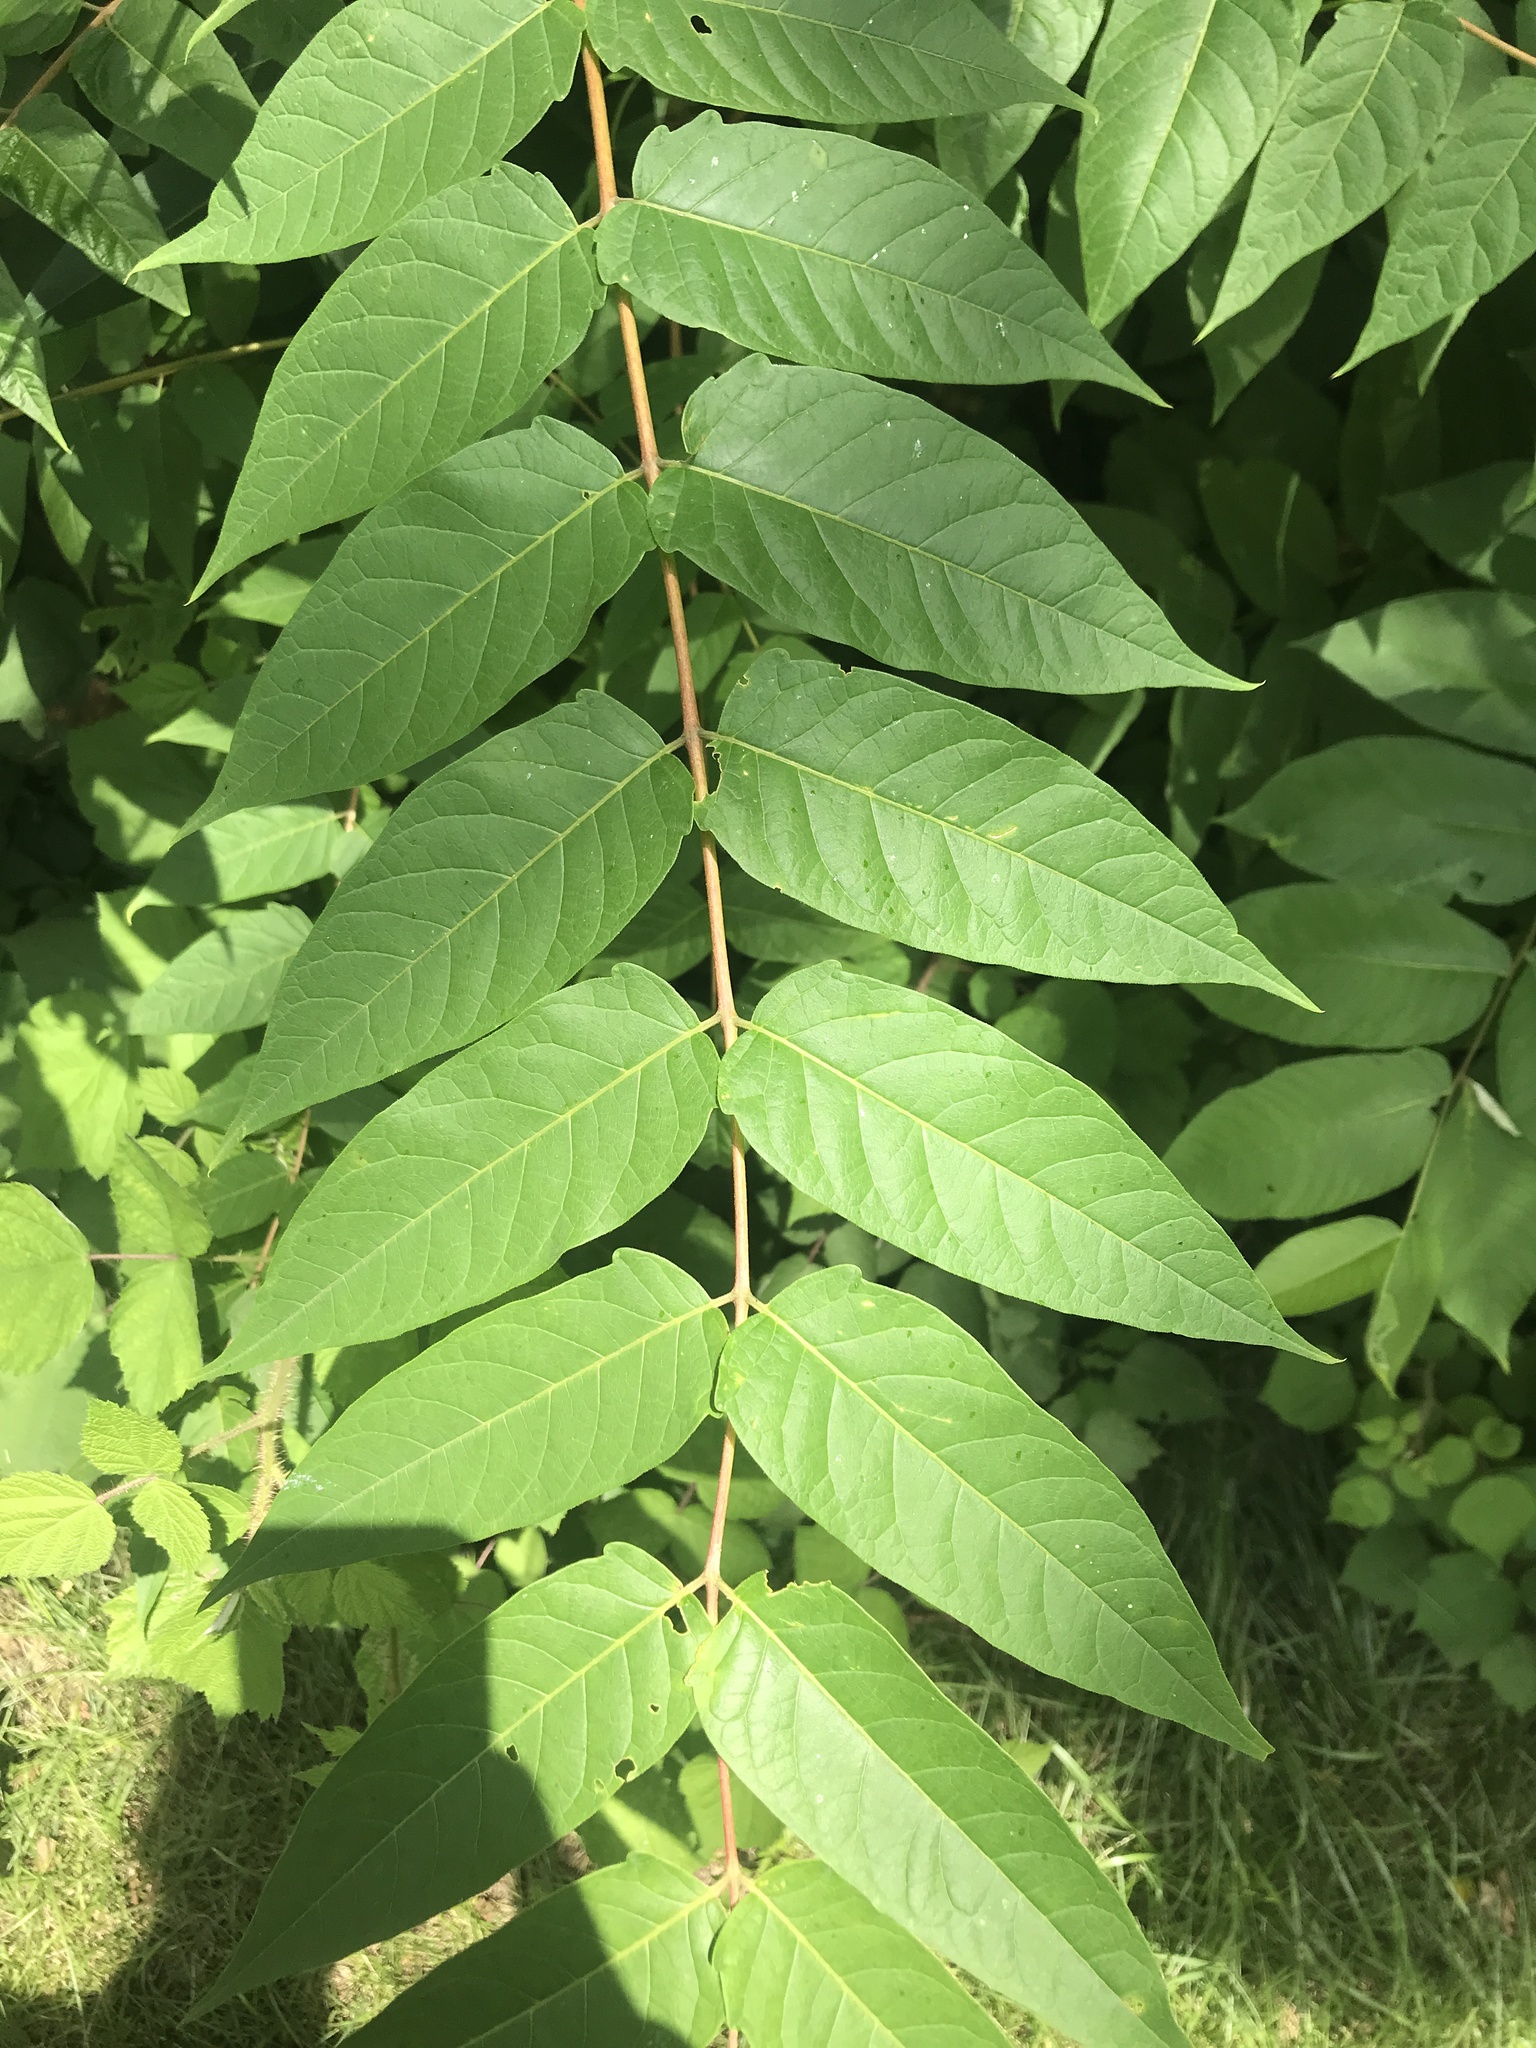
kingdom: Plantae
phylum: Tracheophyta
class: Magnoliopsida
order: Sapindales
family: Simaroubaceae
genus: Ailanthus
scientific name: Ailanthus altissima
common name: Tree-of-heaven
